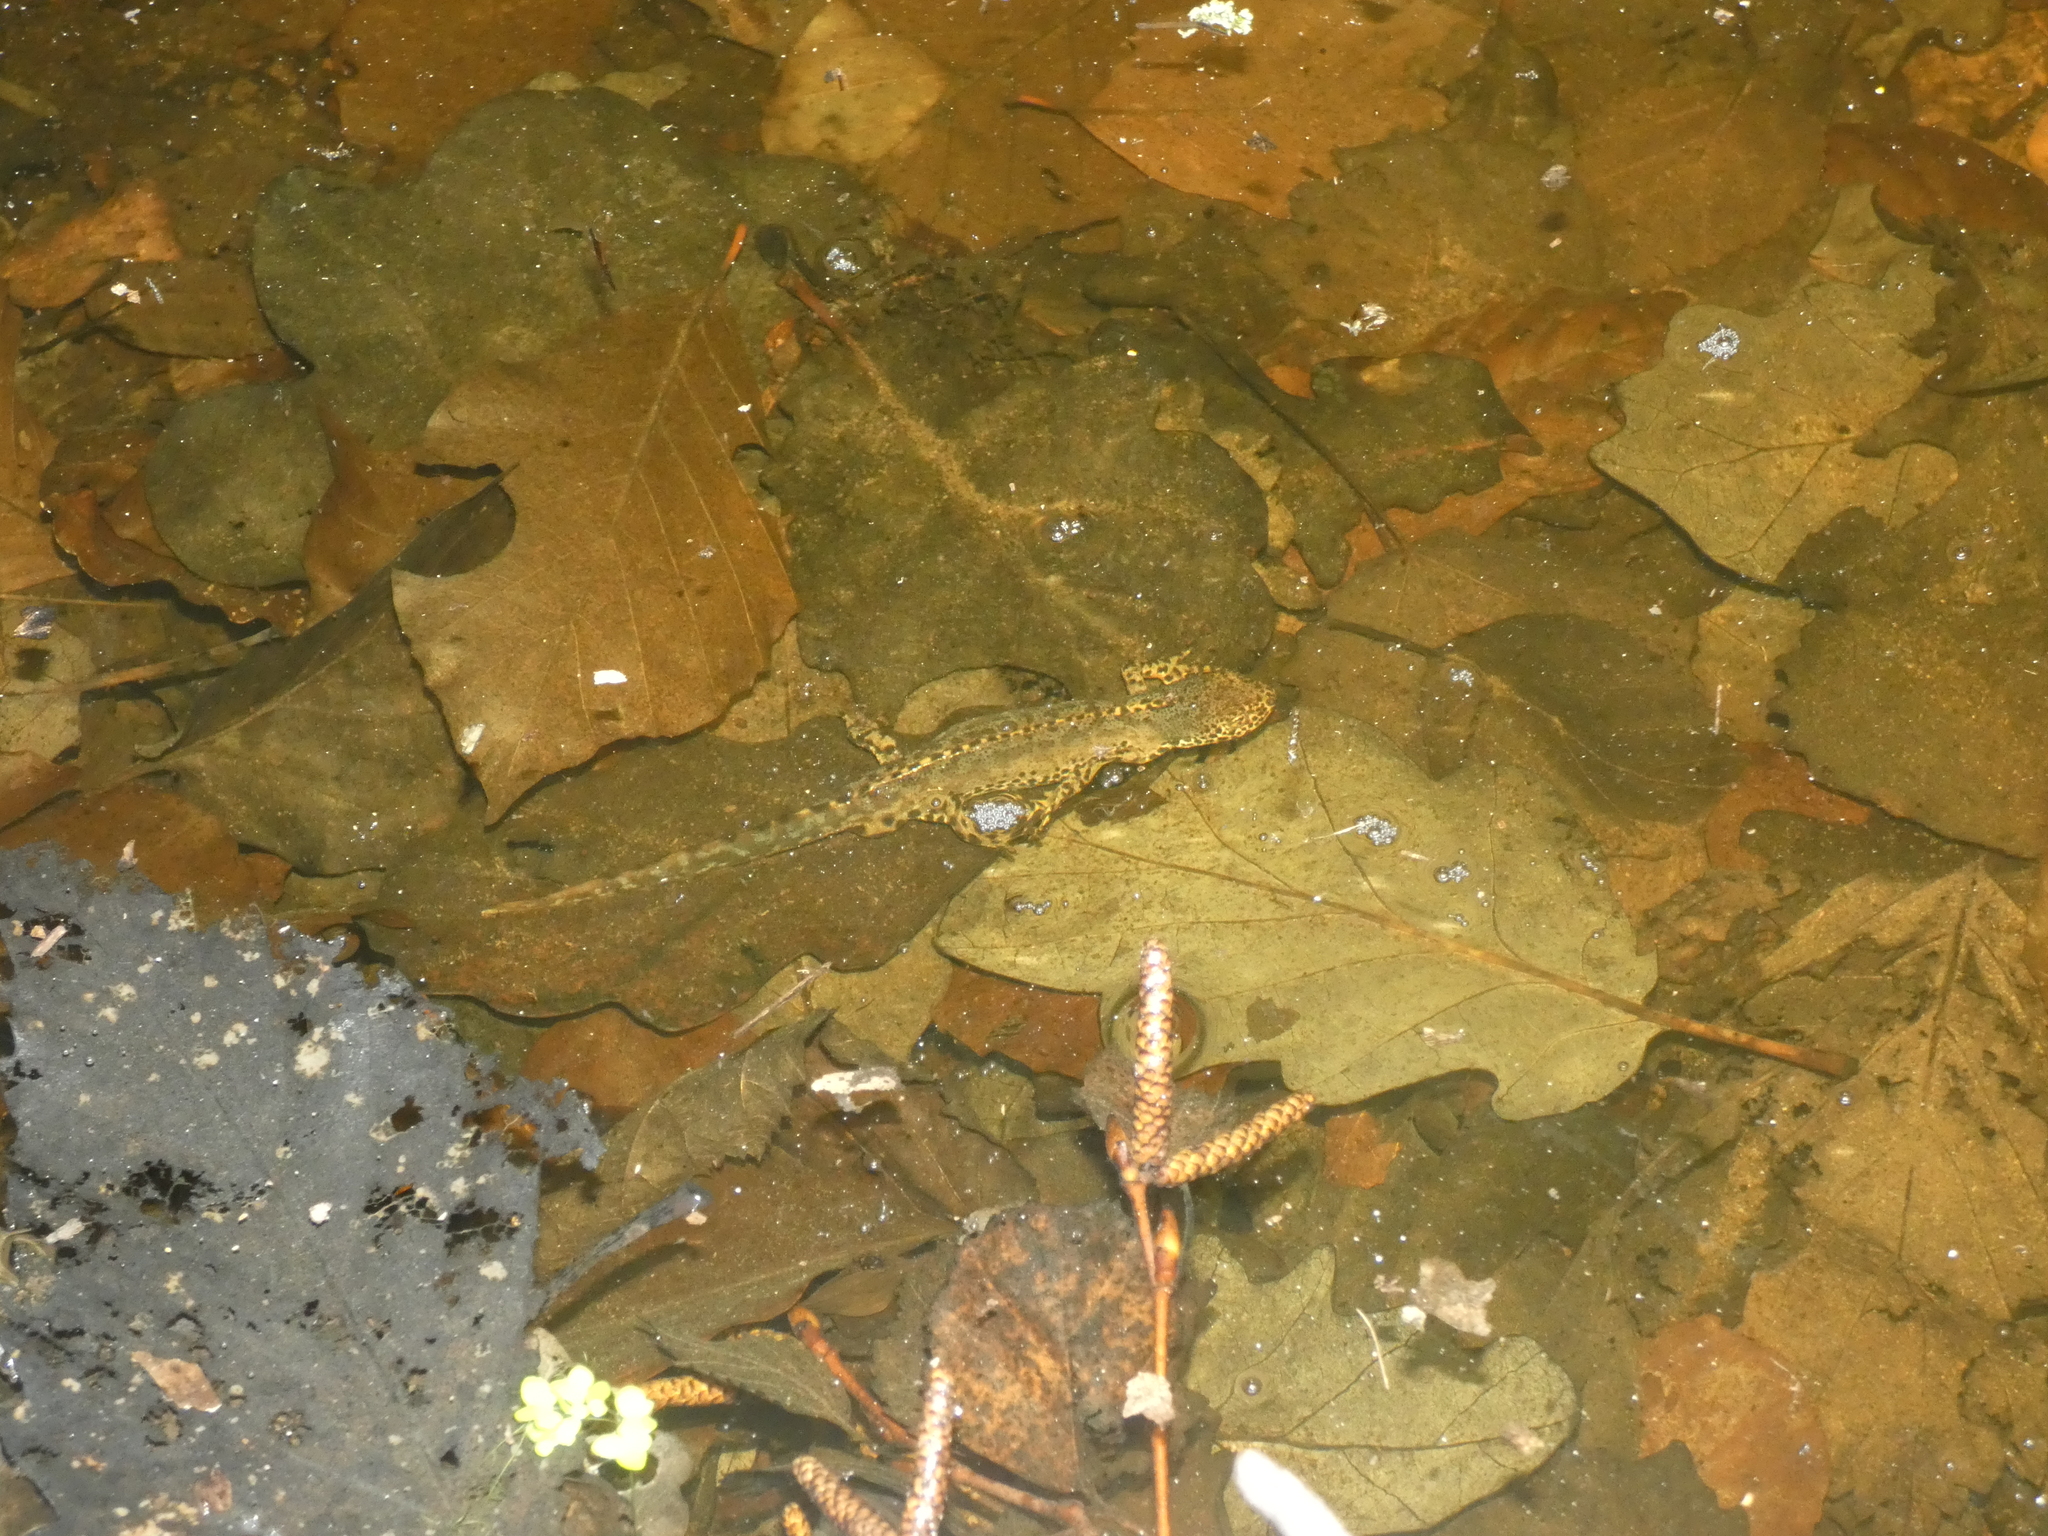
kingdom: Animalia
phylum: Chordata
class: Amphibia
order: Caudata
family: Salamandridae
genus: Ichthyosaura
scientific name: Ichthyosaura alpestris
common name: Alpine newt
